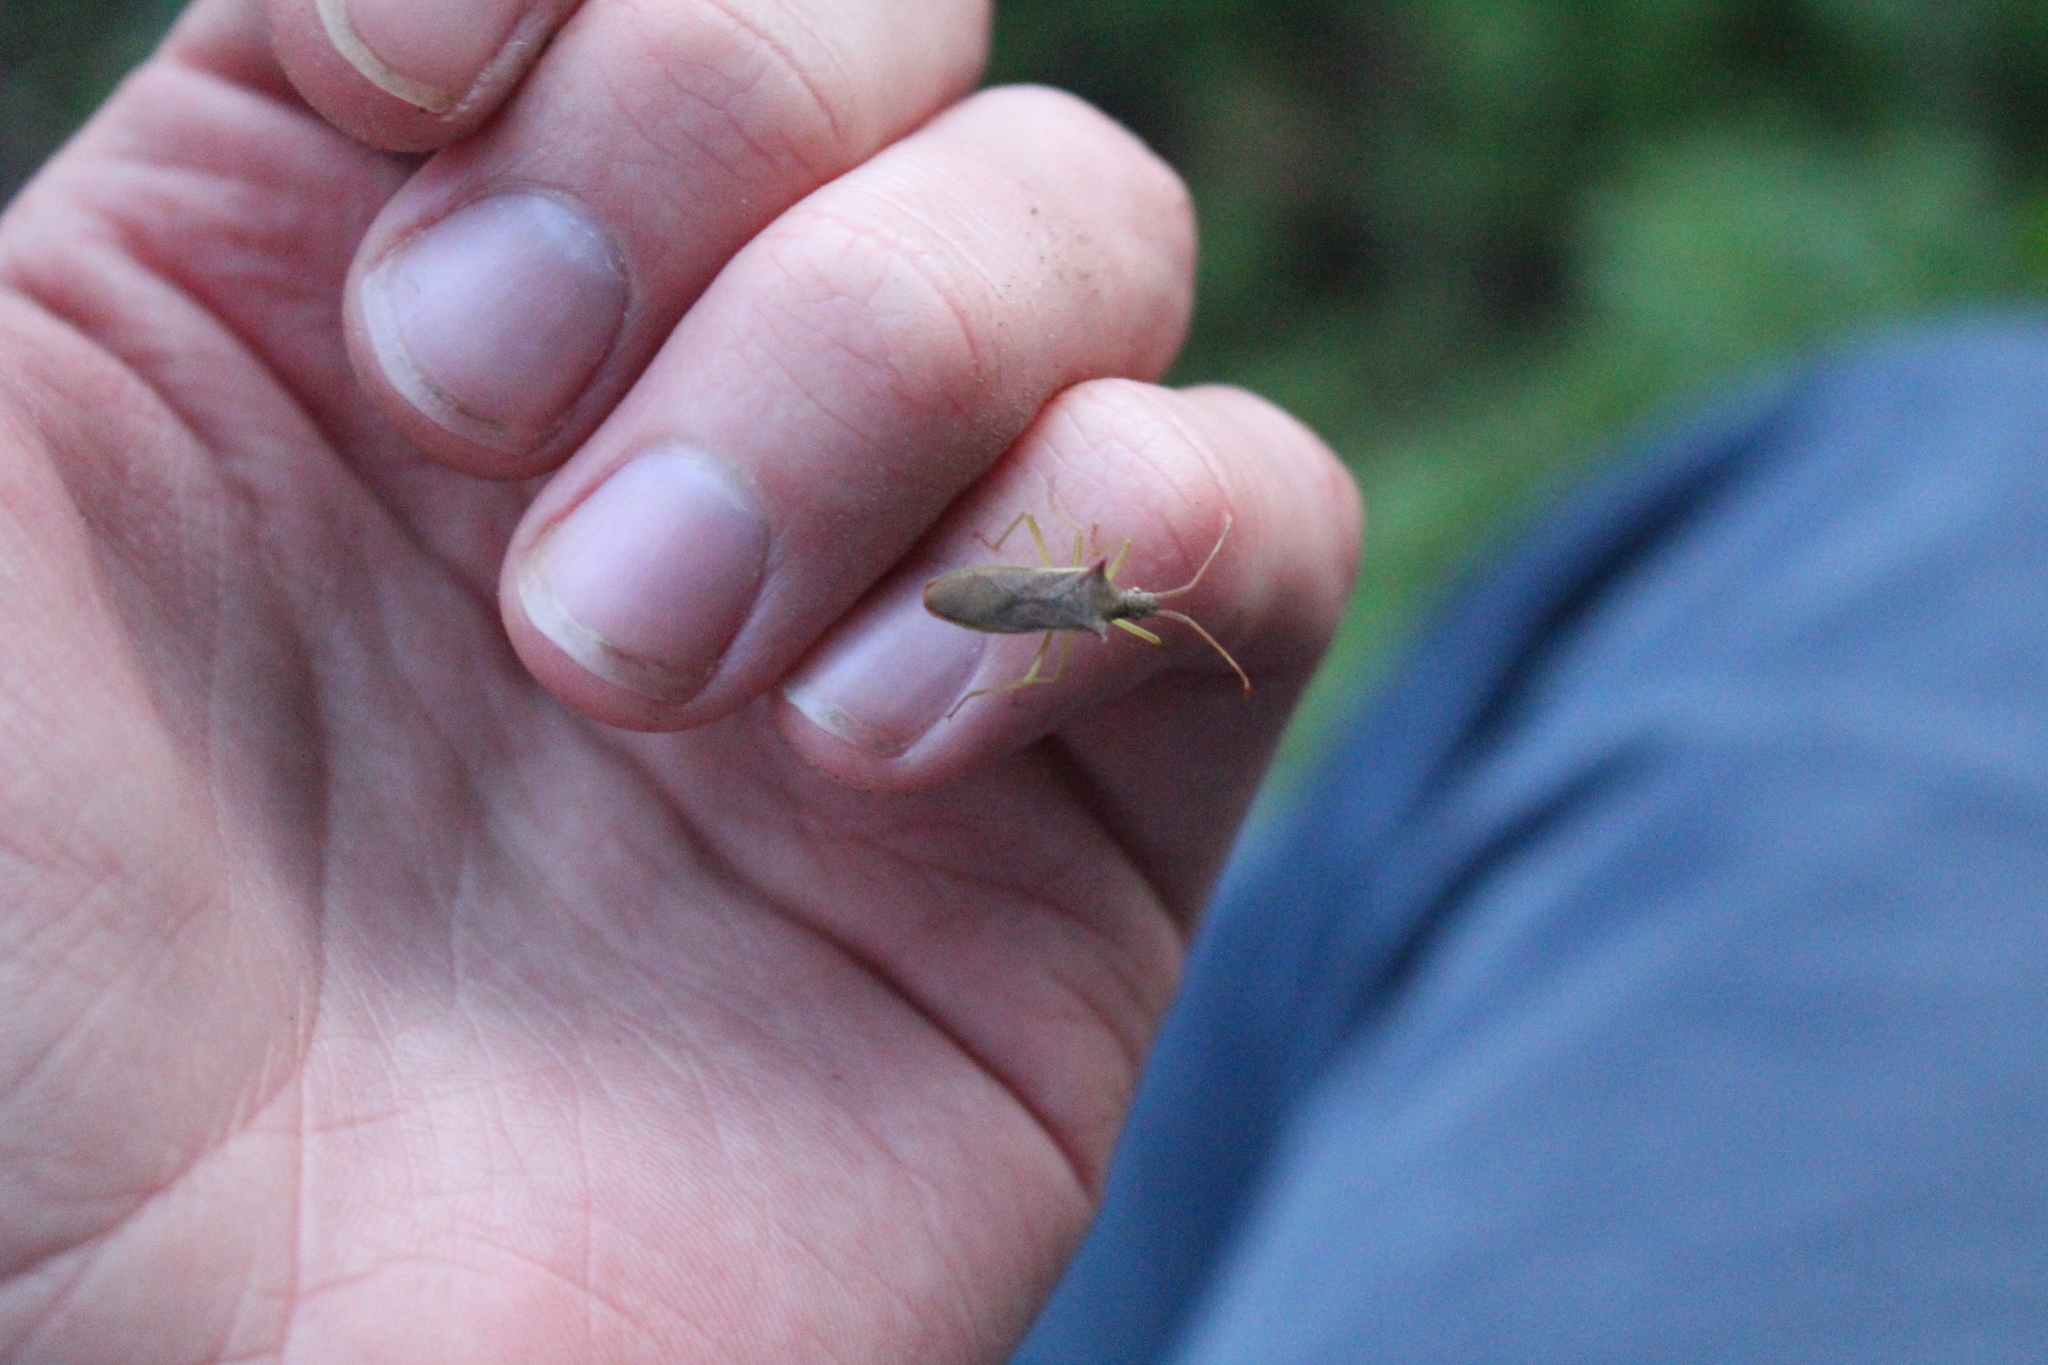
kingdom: Animalia
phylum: Arthropoda
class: Insecta
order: Hemiptera
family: Coreidae
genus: Gonocerus
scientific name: Gonocerus insidiator
